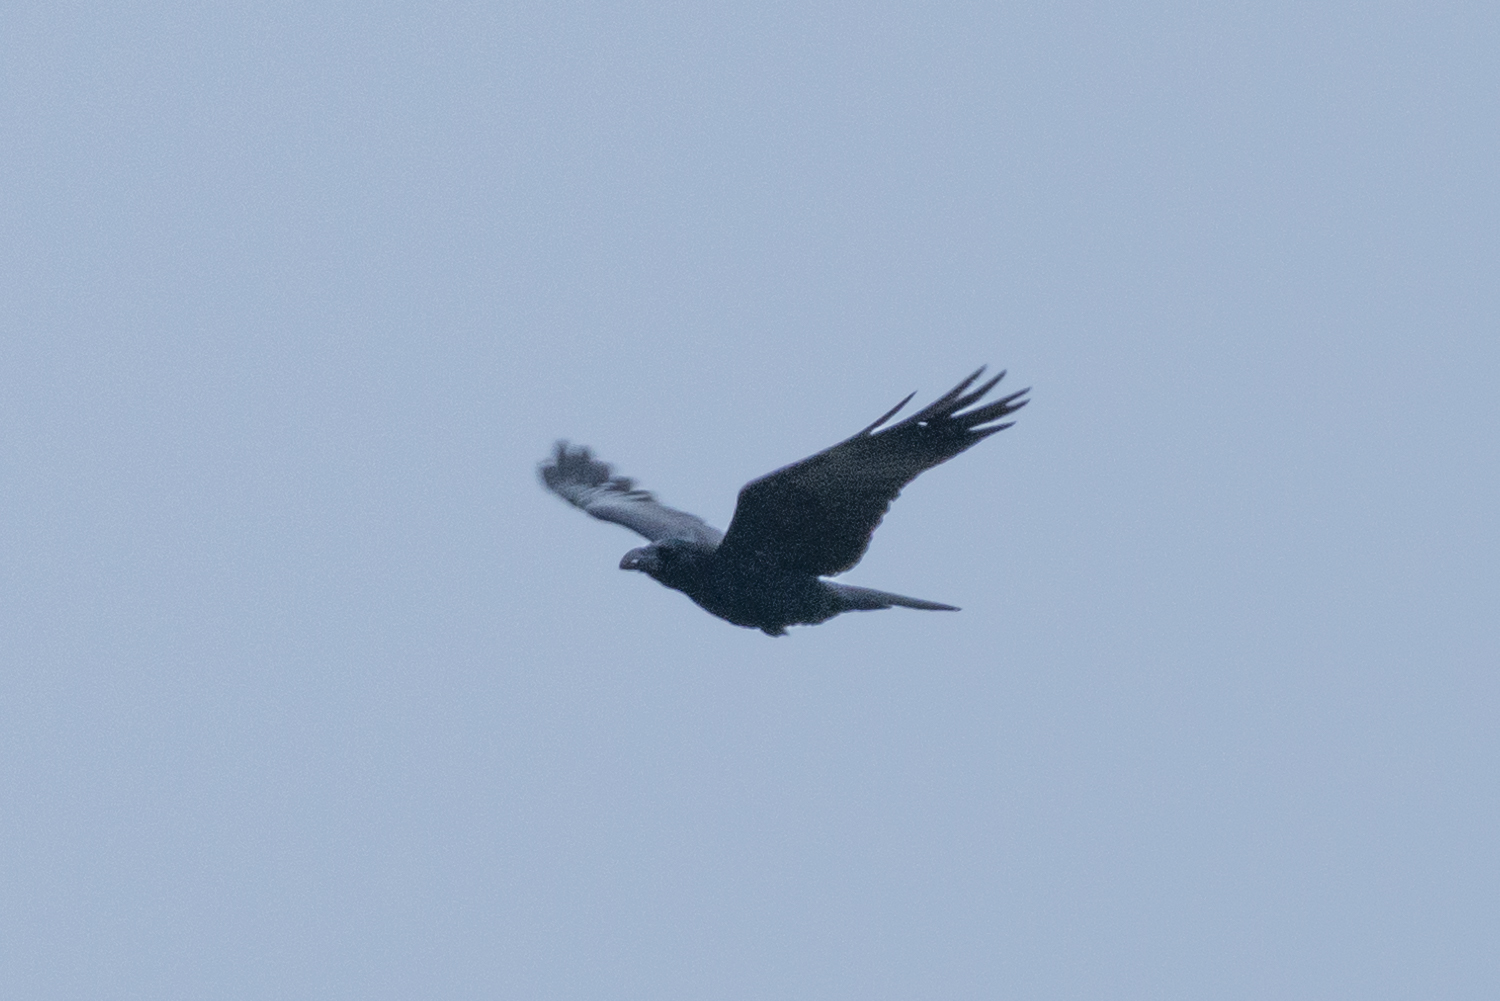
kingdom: Animalia
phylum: Chordata
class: Aves
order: Passeriformes
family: Corvidae
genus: Corvus
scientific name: Corvus macrorhynchos
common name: Large-billed crow
